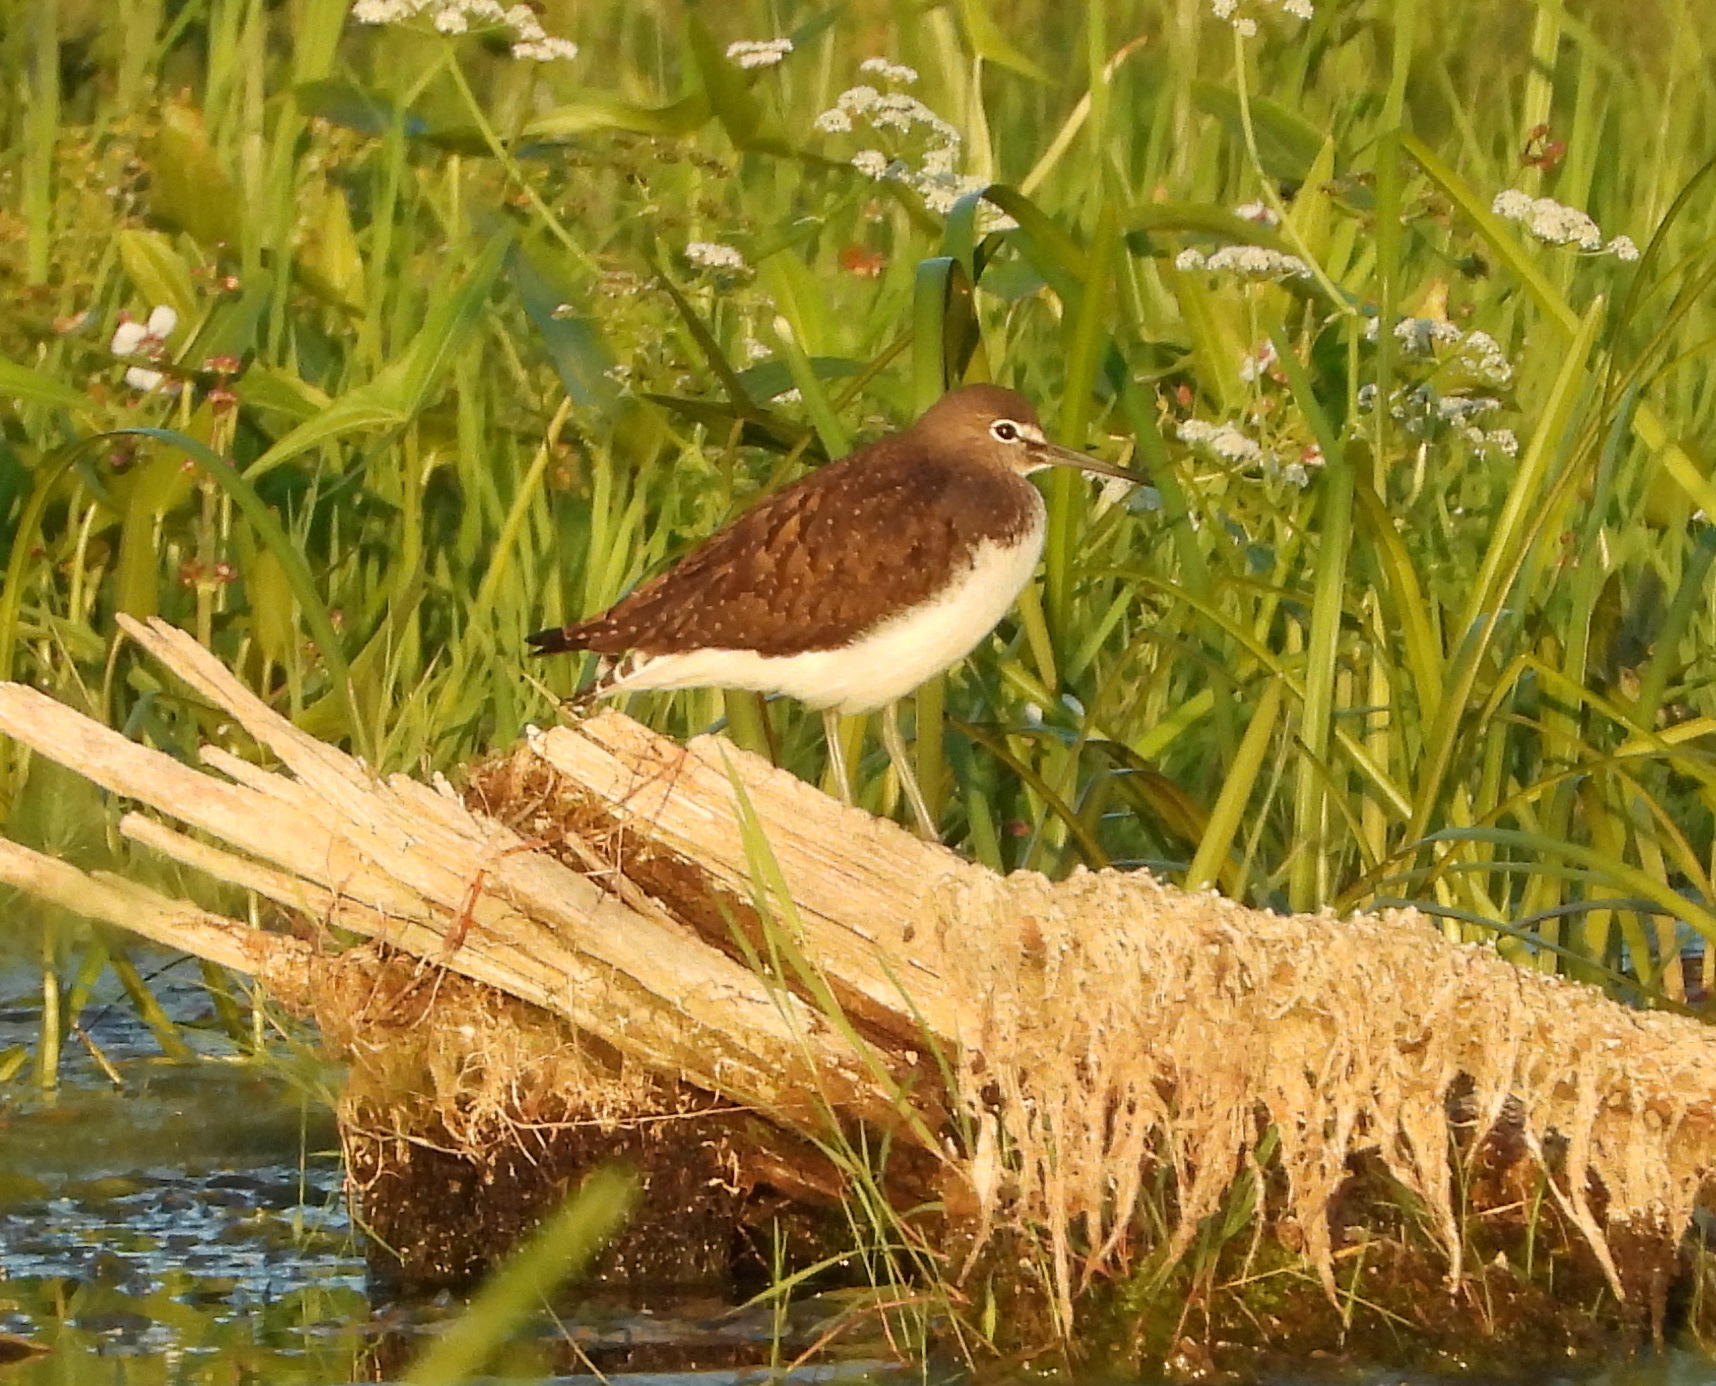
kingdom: Animalia
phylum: Chordata
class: Aves
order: Charadriiformes
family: Scolopacidae
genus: Tringa
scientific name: Tringa ochropus
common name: Green sandpiper
